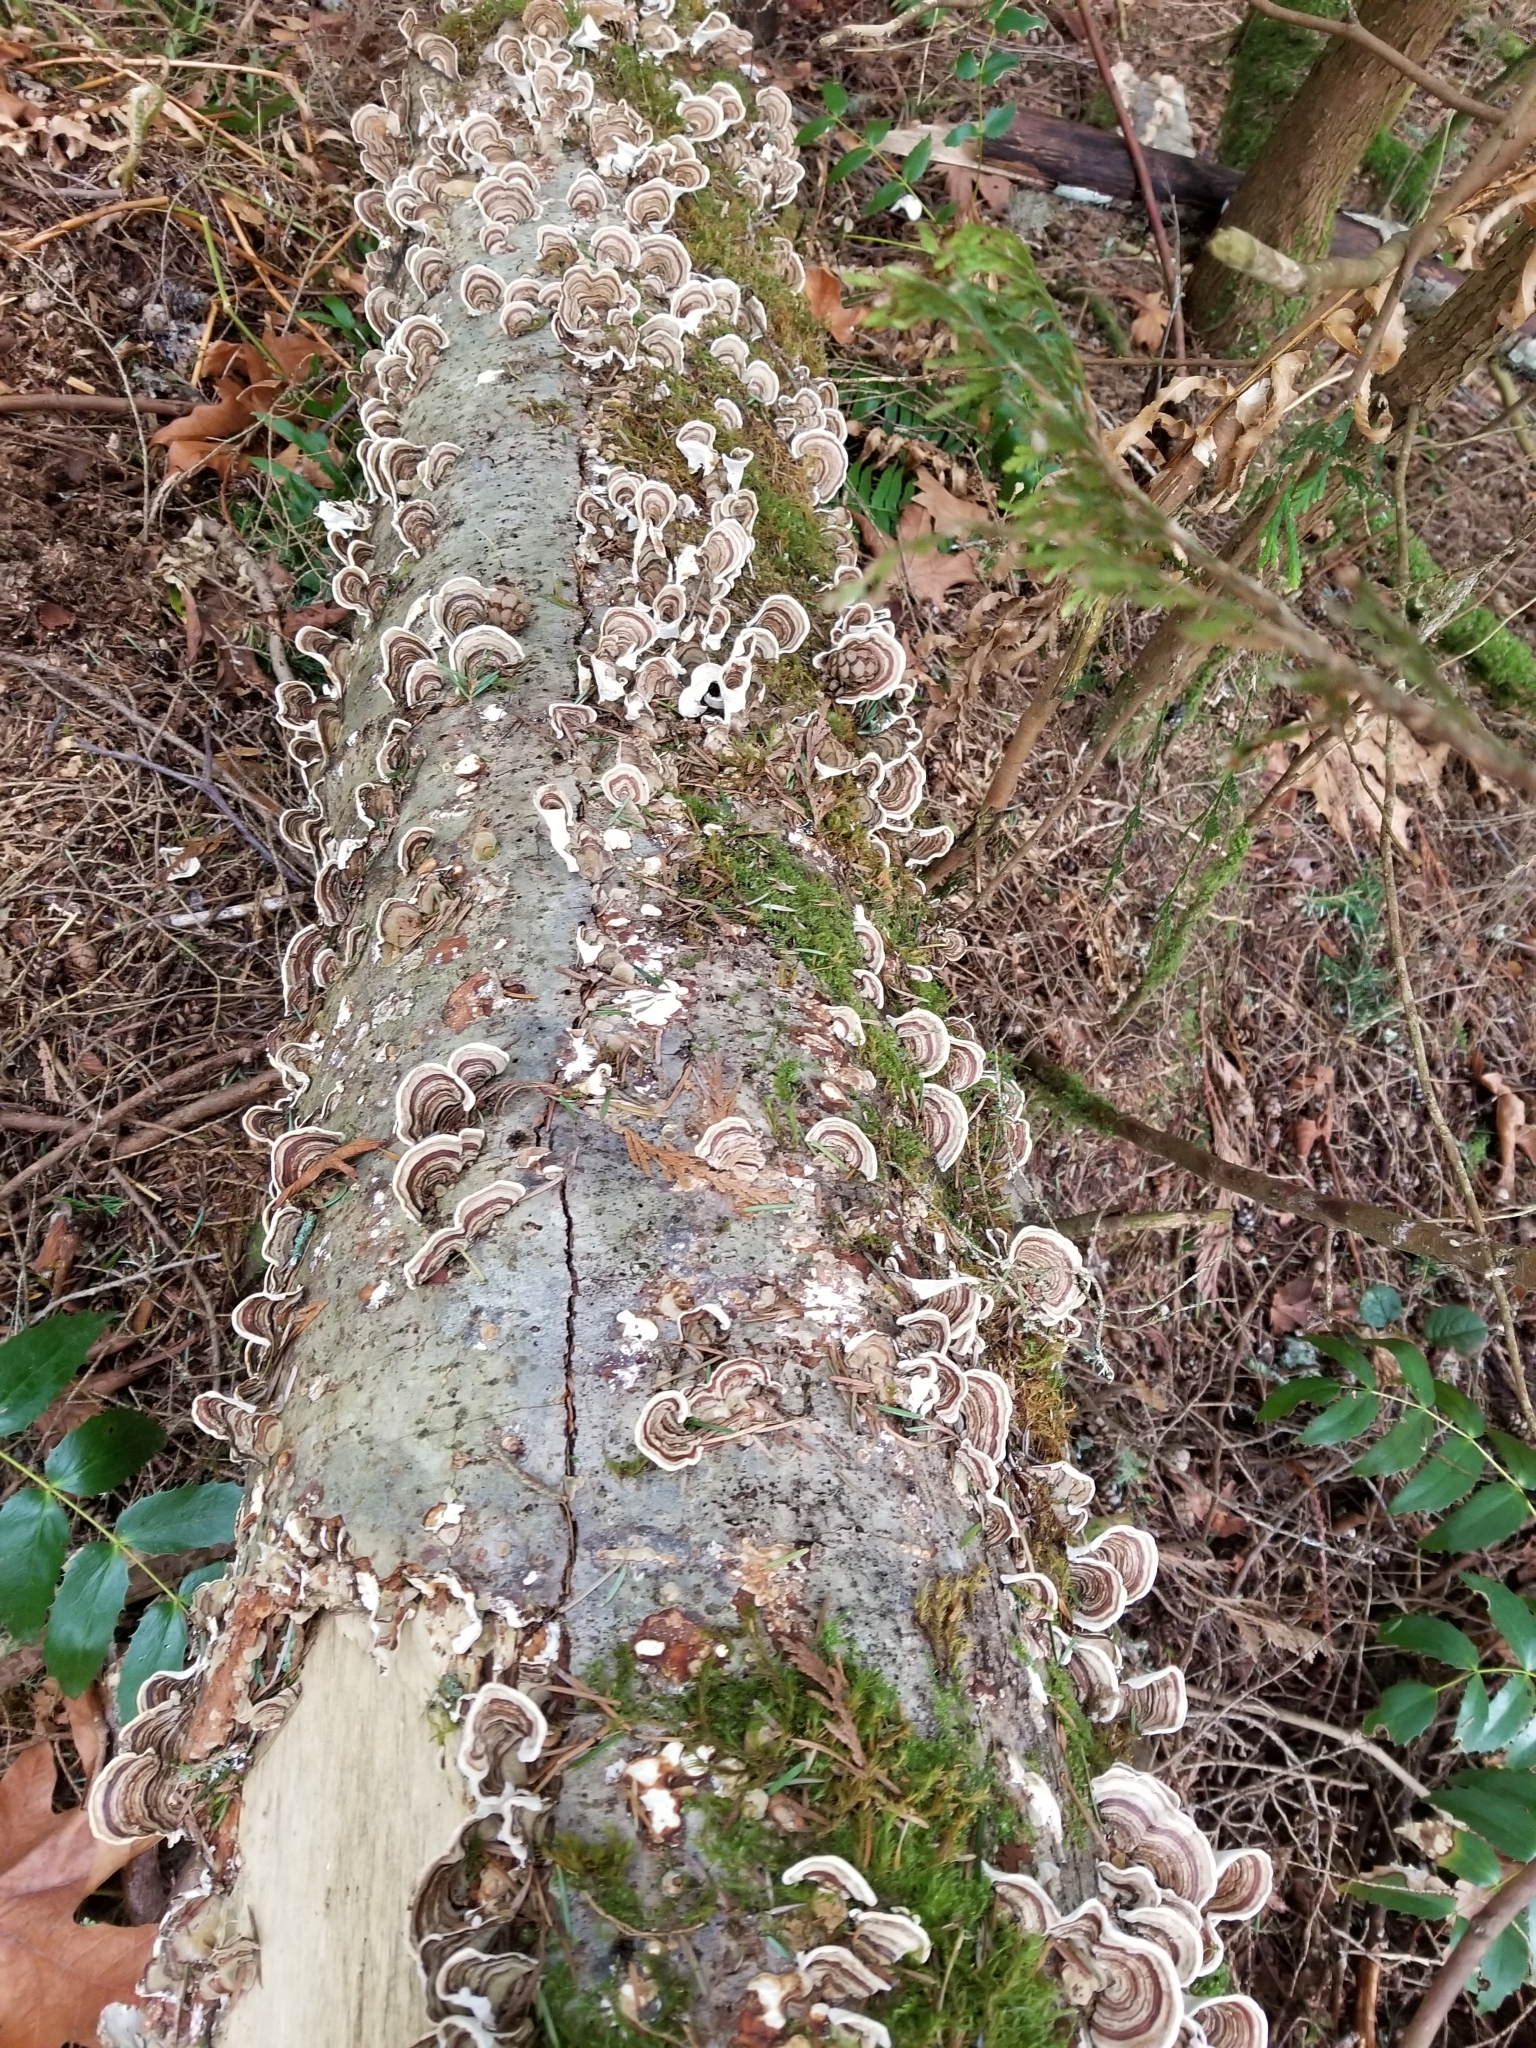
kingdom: Fungi
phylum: Basidiomycota
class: Agaricomycetes
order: Polyporales
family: Polyporaceae
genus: Trametes
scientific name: Trametes versicolor
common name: Turkeytail
